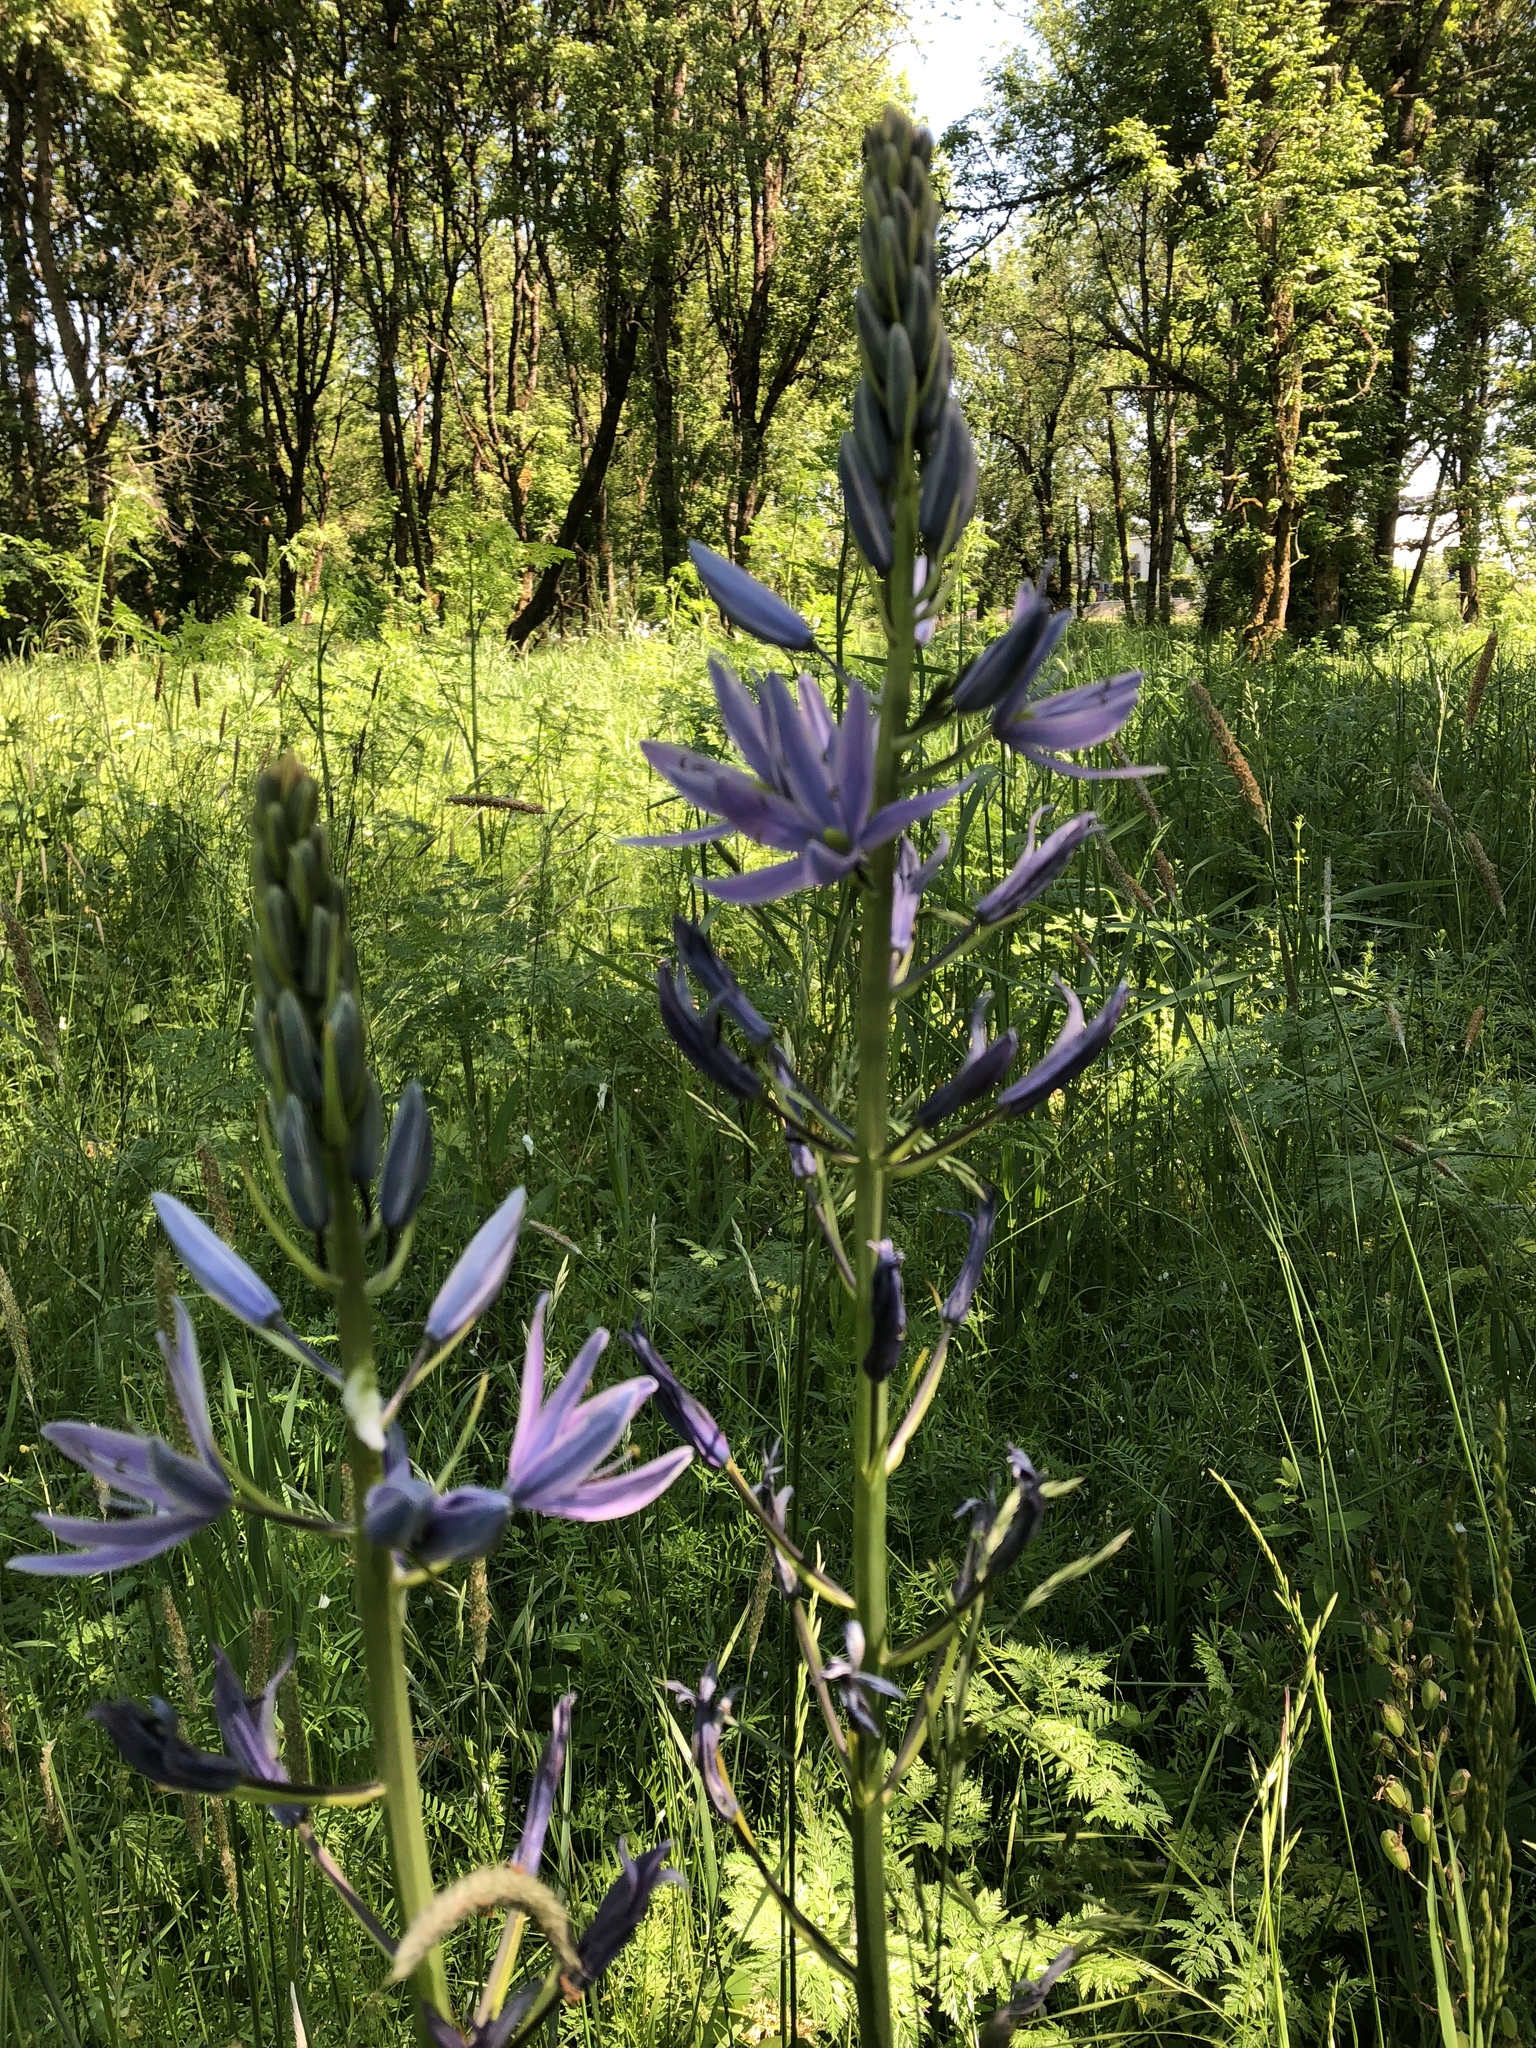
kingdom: Plantae
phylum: Tracheophyta
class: Liliopsida
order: Asparagales
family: Asparagaceae
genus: Camassia
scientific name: Camassia leichtlinii
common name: Leichtlin's camas
